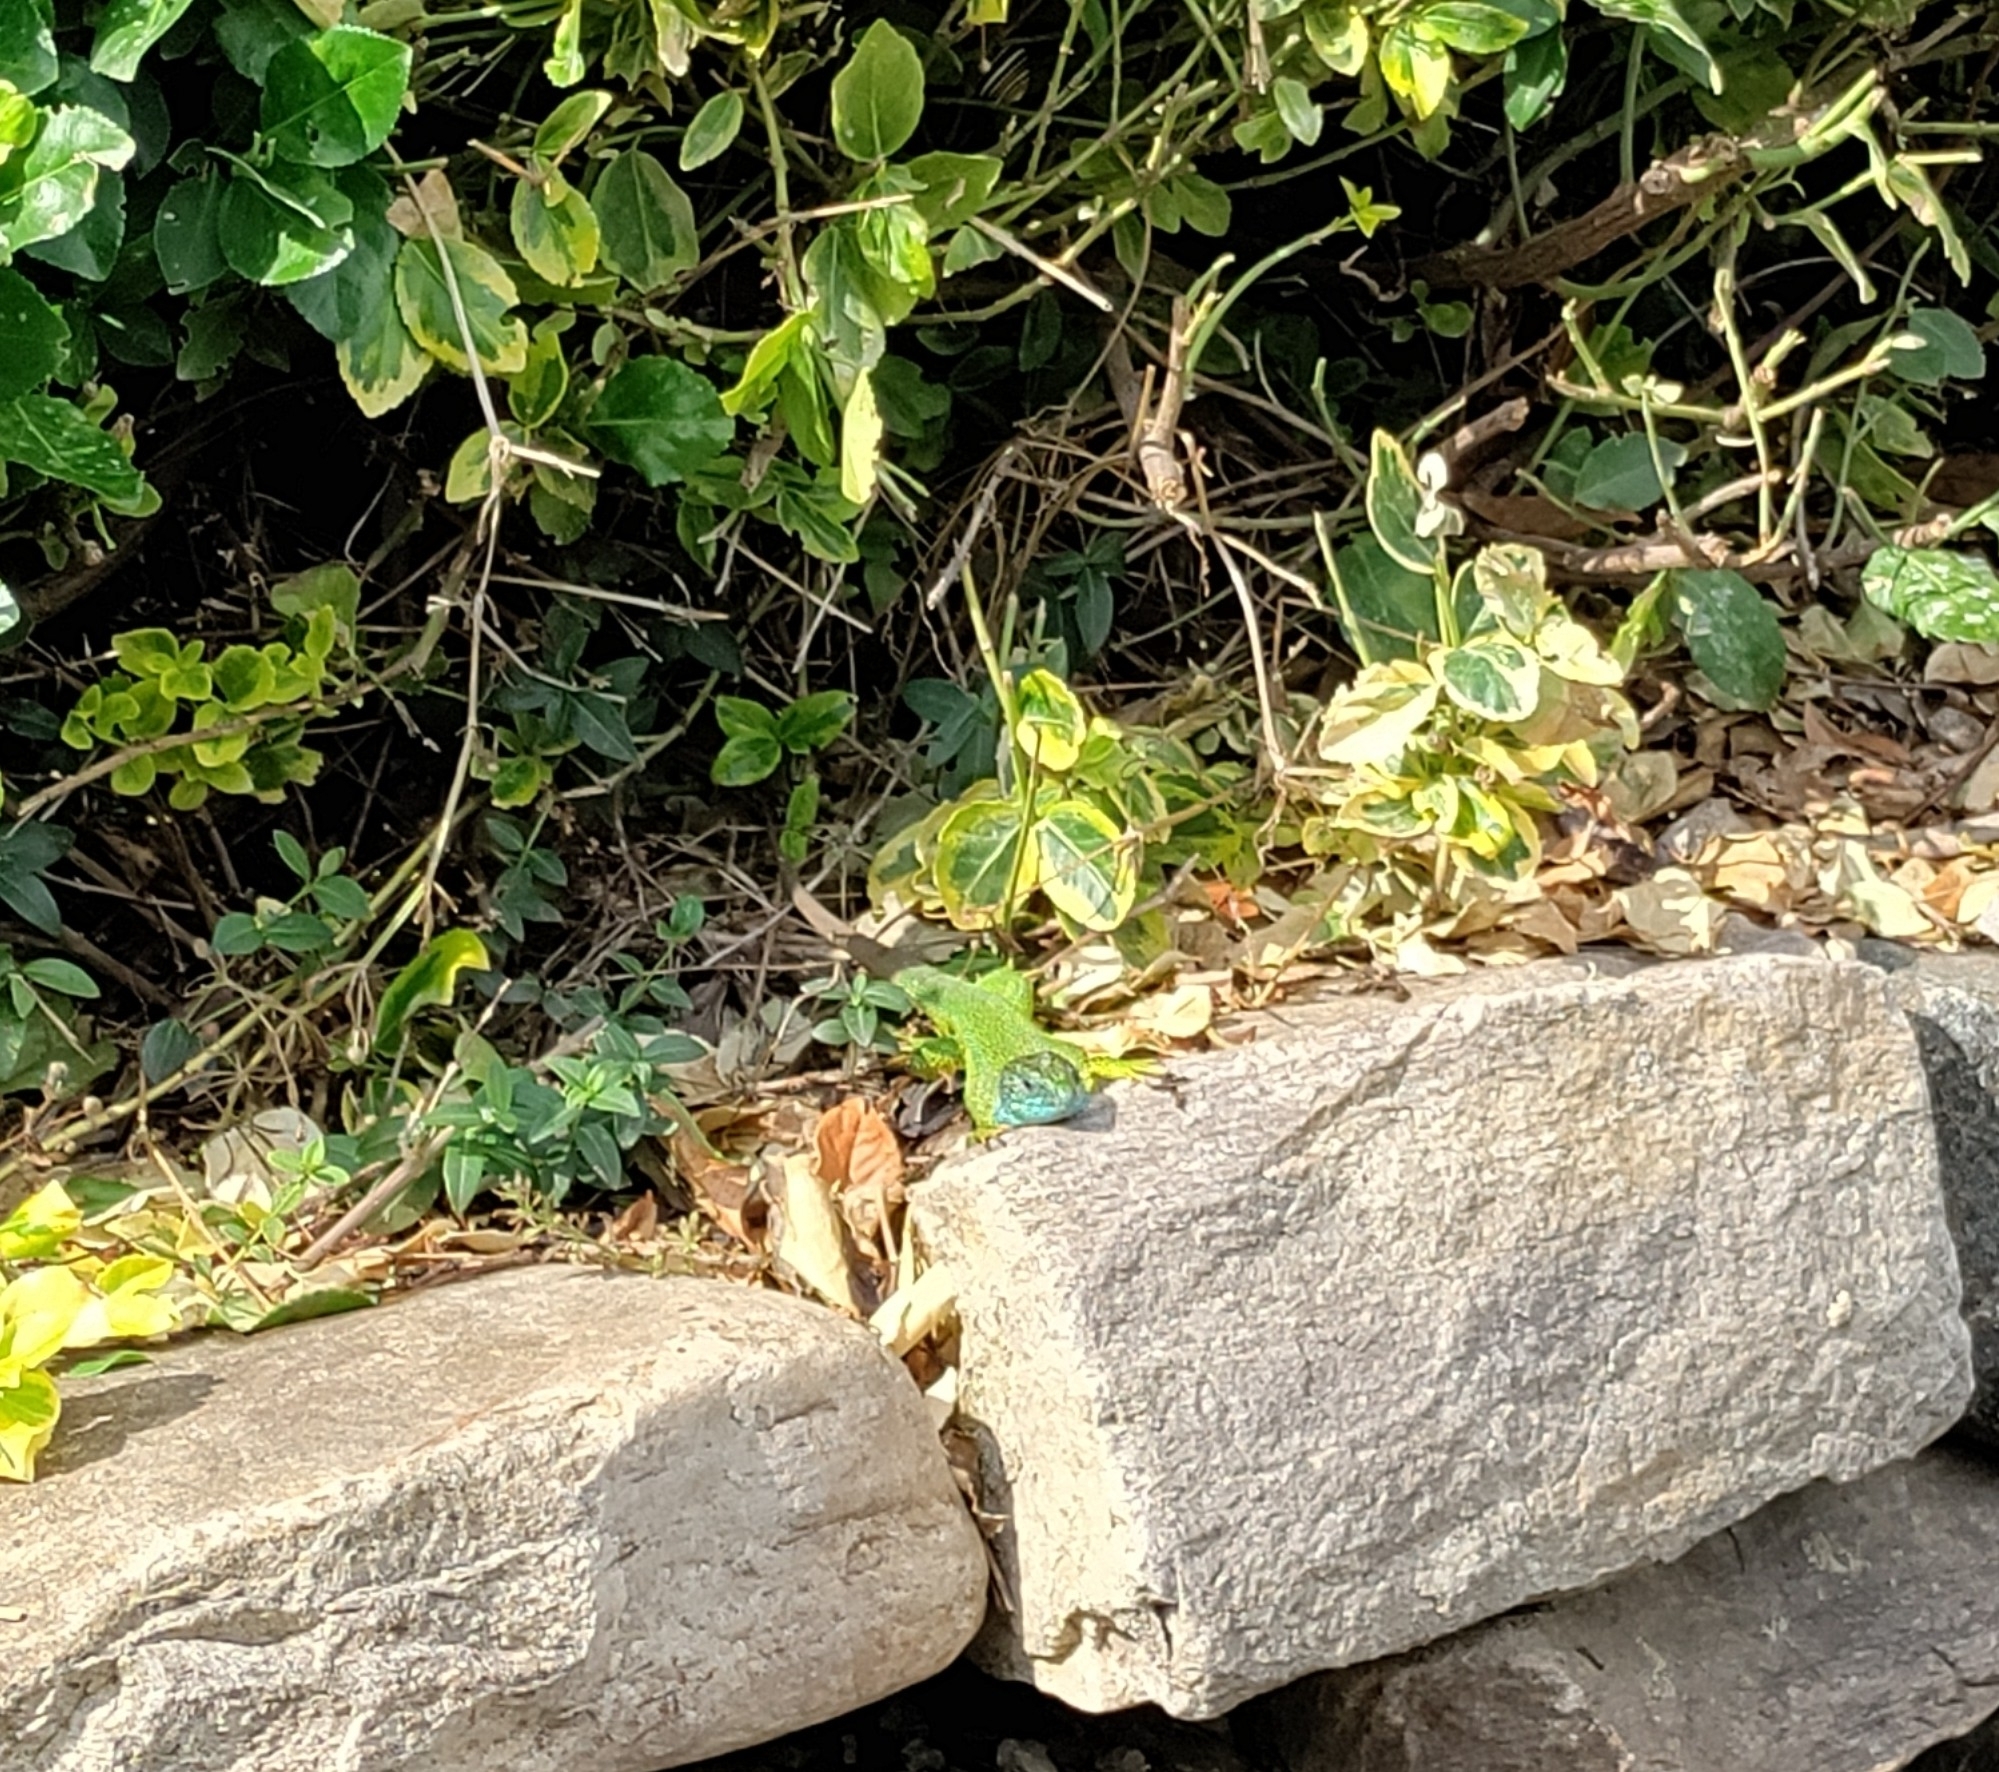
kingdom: Animalia
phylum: Chordata
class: Squamata
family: Lacertidae
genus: Lacerta
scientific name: Lacerta viridis
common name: European green lizard
